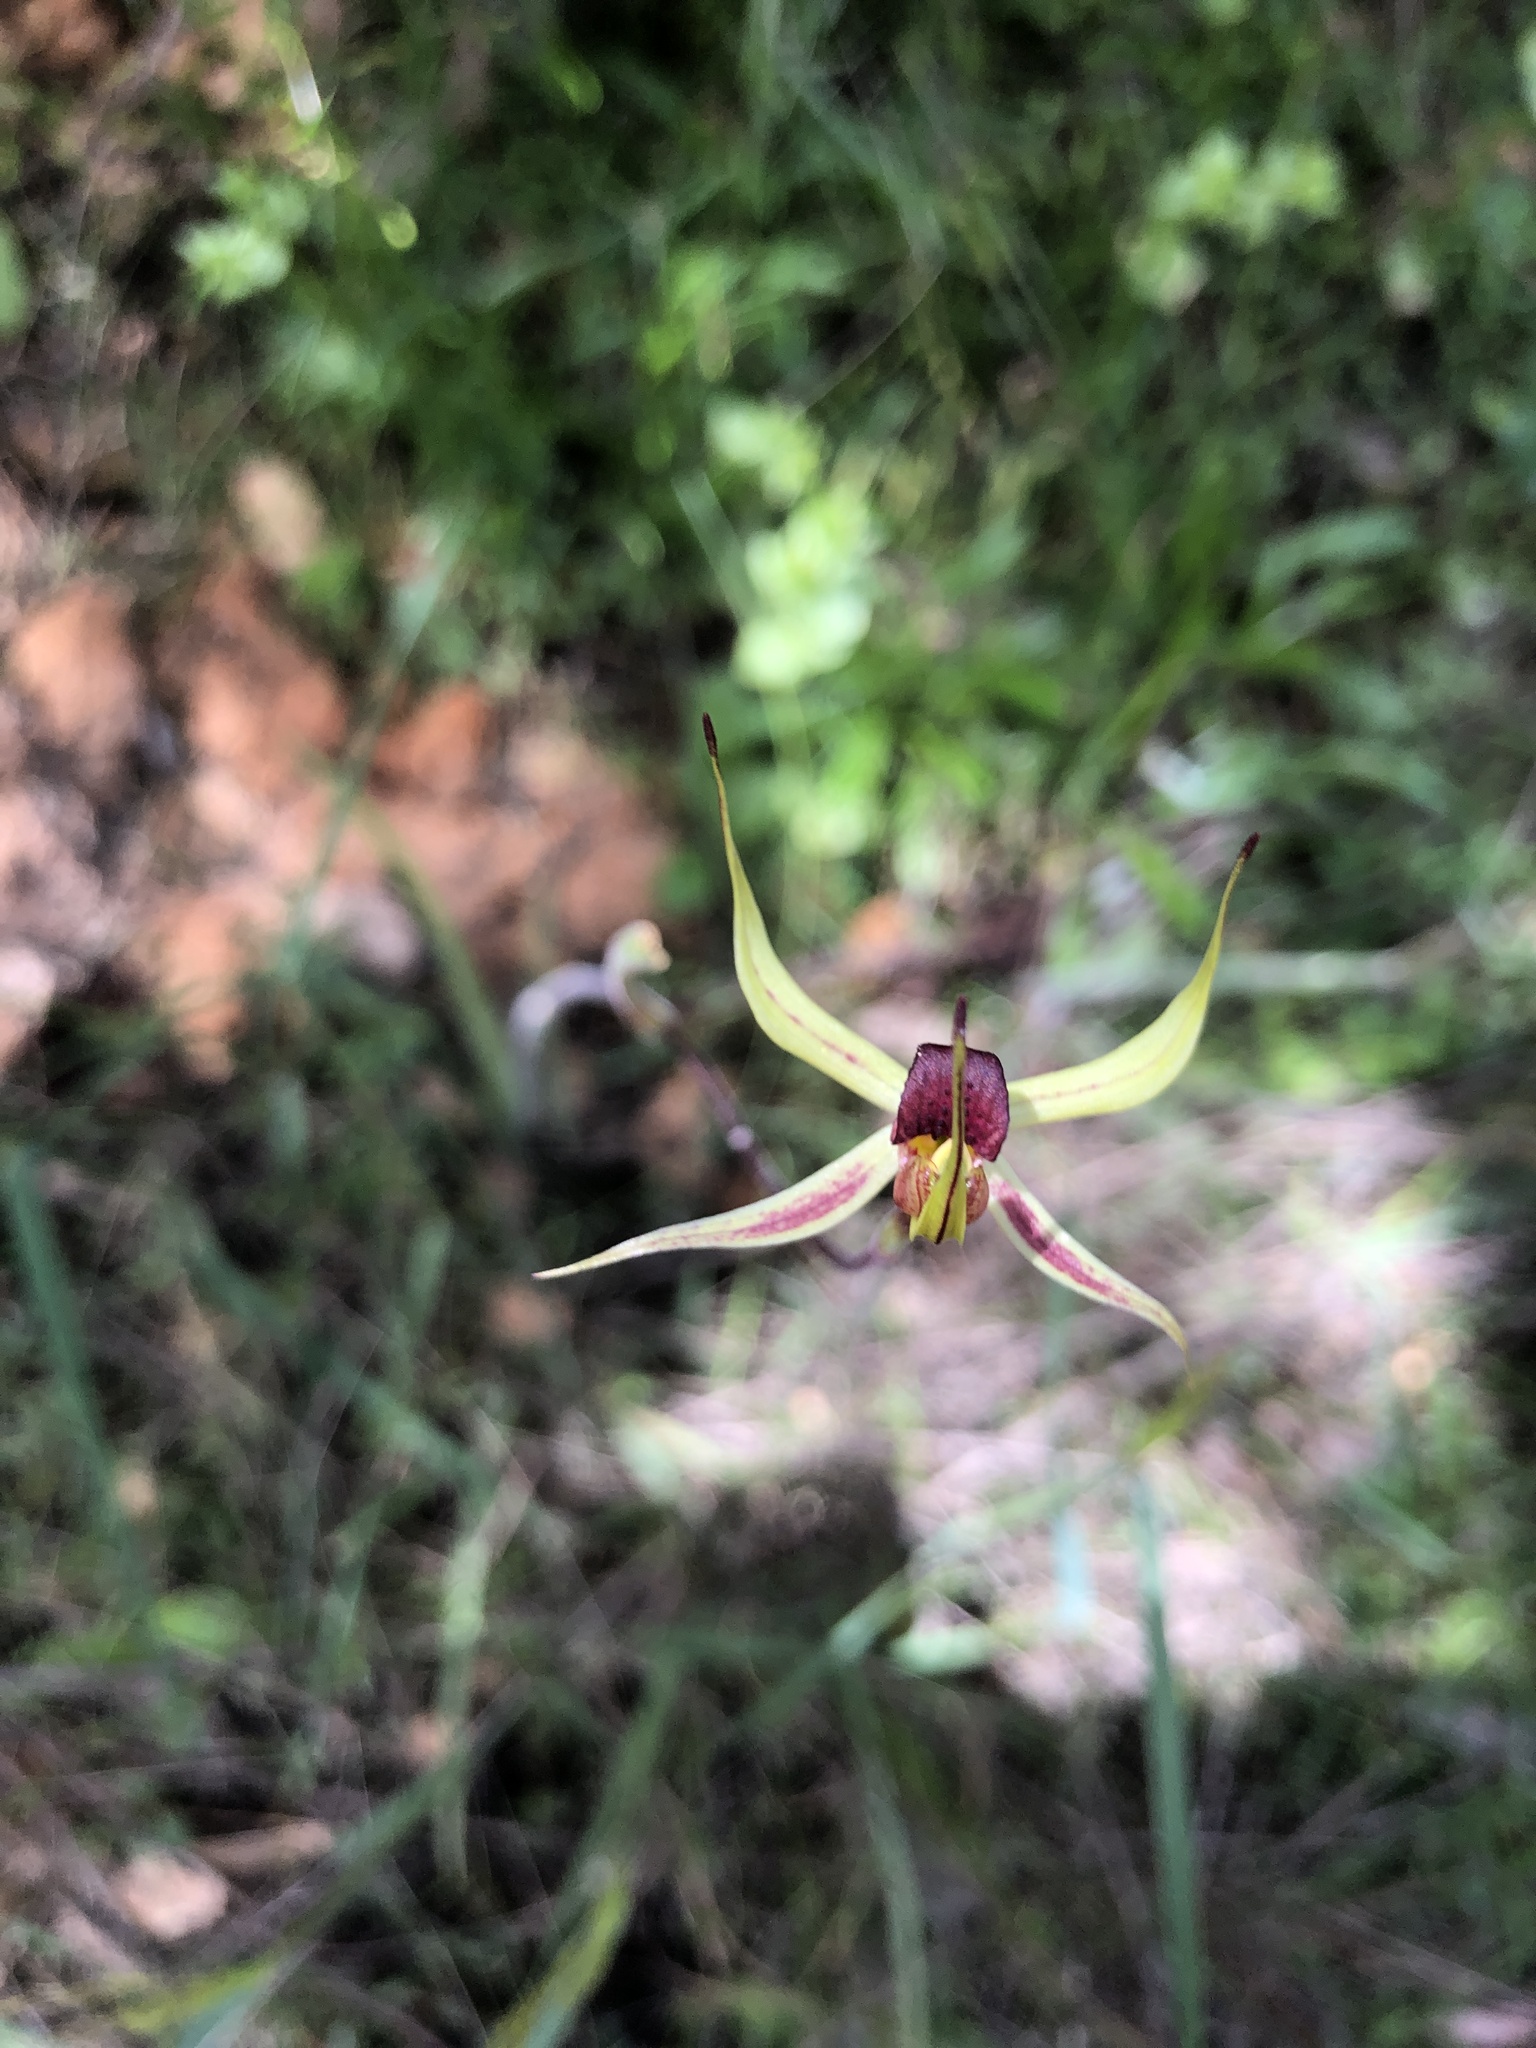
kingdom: Plantae
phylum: Tracheophyta
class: Liliopsida
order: Asparagales
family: Orchidaceae
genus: Caladenia
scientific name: Caladenia leptochila
